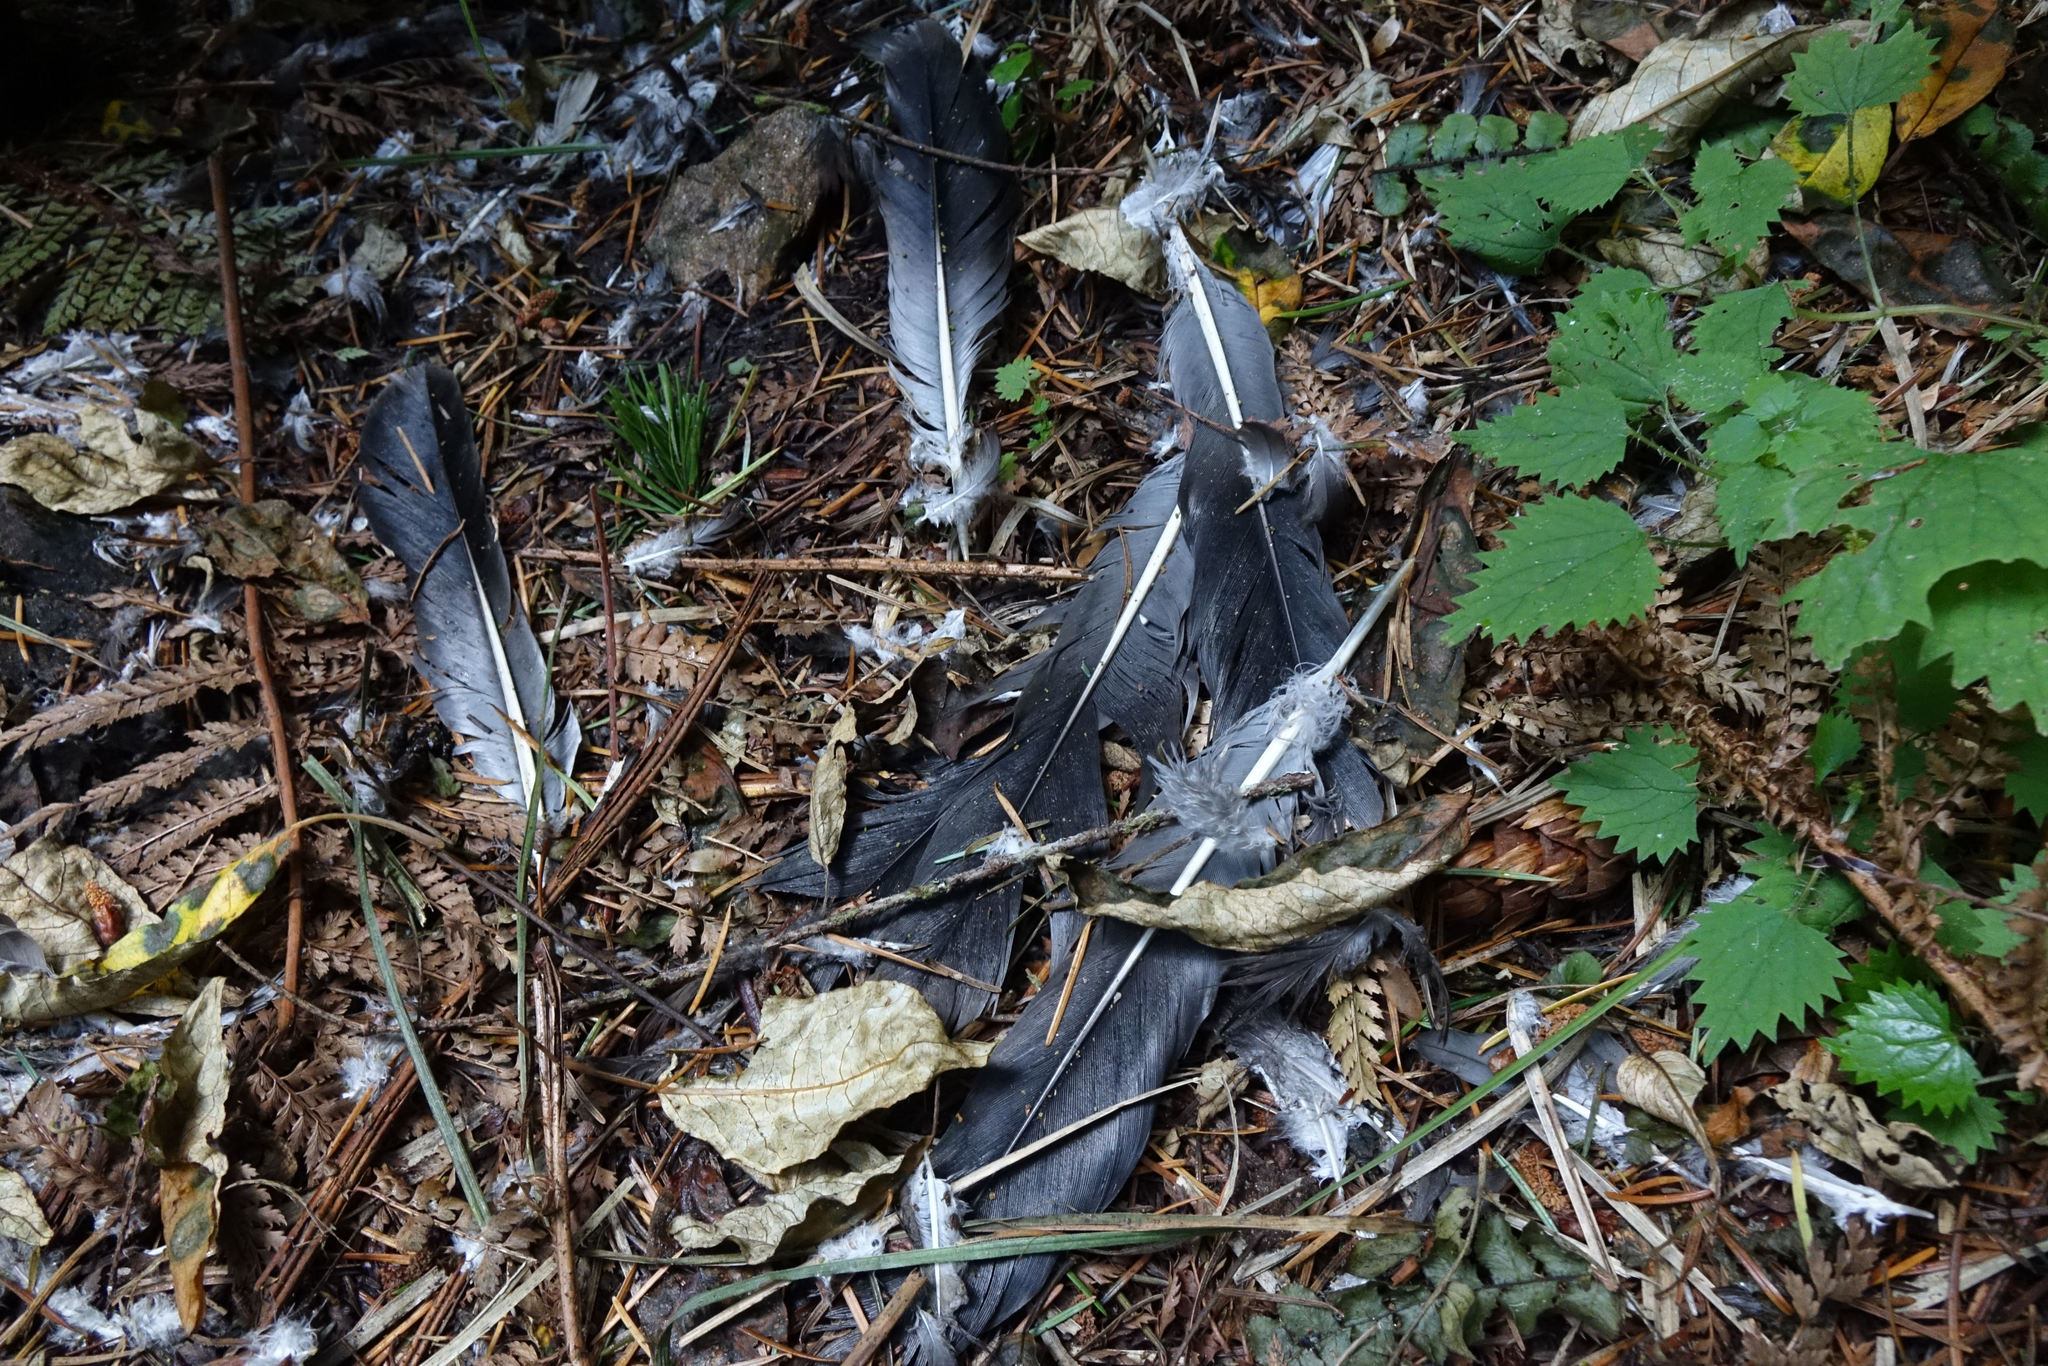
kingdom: Animalia
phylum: Chordata
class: Aves
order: Columbiformes
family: Columbidae
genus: Hemiphaga
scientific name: Hemiphaga novaeseelandiae
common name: New zealand pigeon
